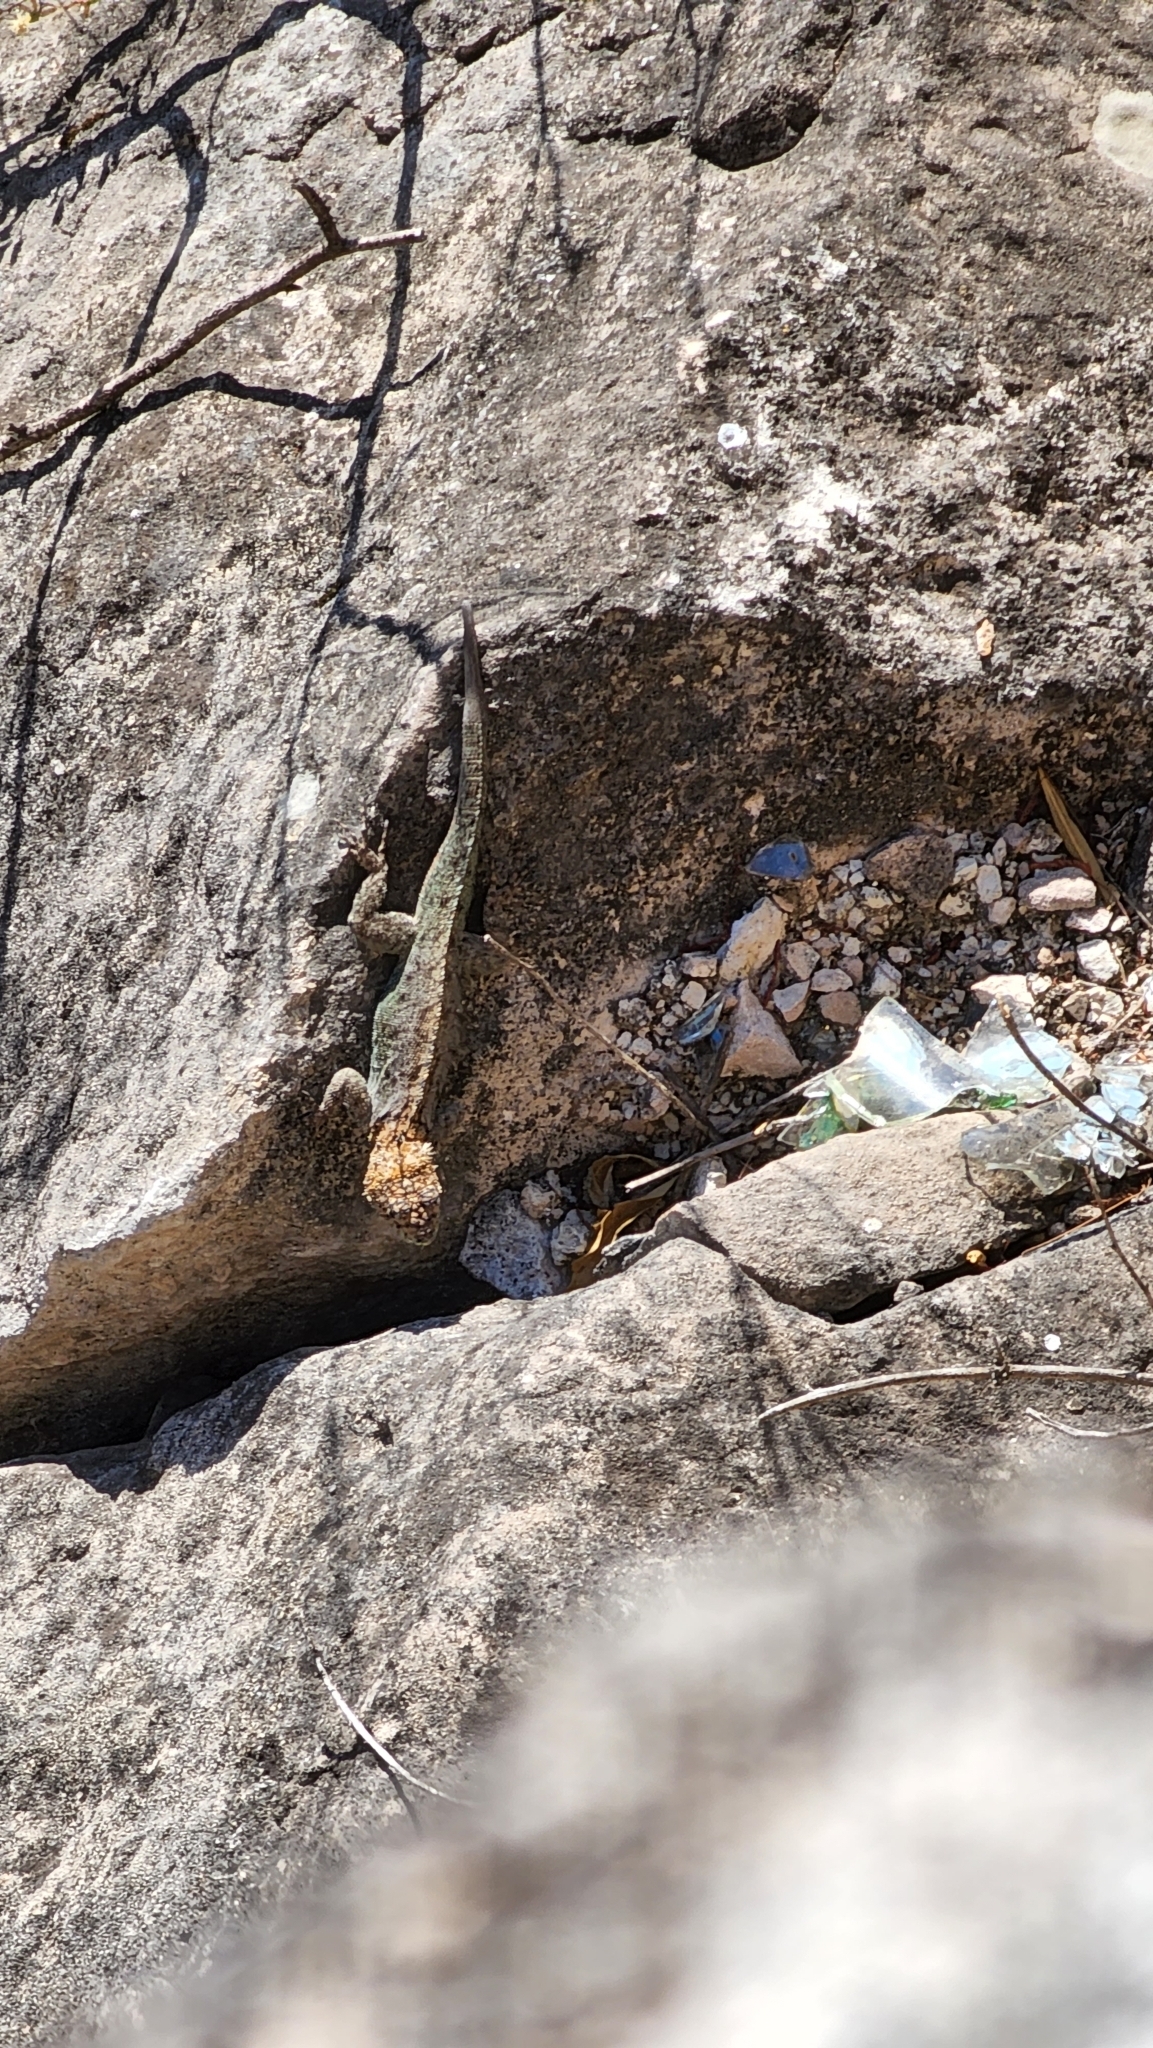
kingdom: Animalia
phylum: Chordata
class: Squamata
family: Tropiduridae
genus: Tropidurus
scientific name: Tropidurus spinulosus
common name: Spiny lava lizard
